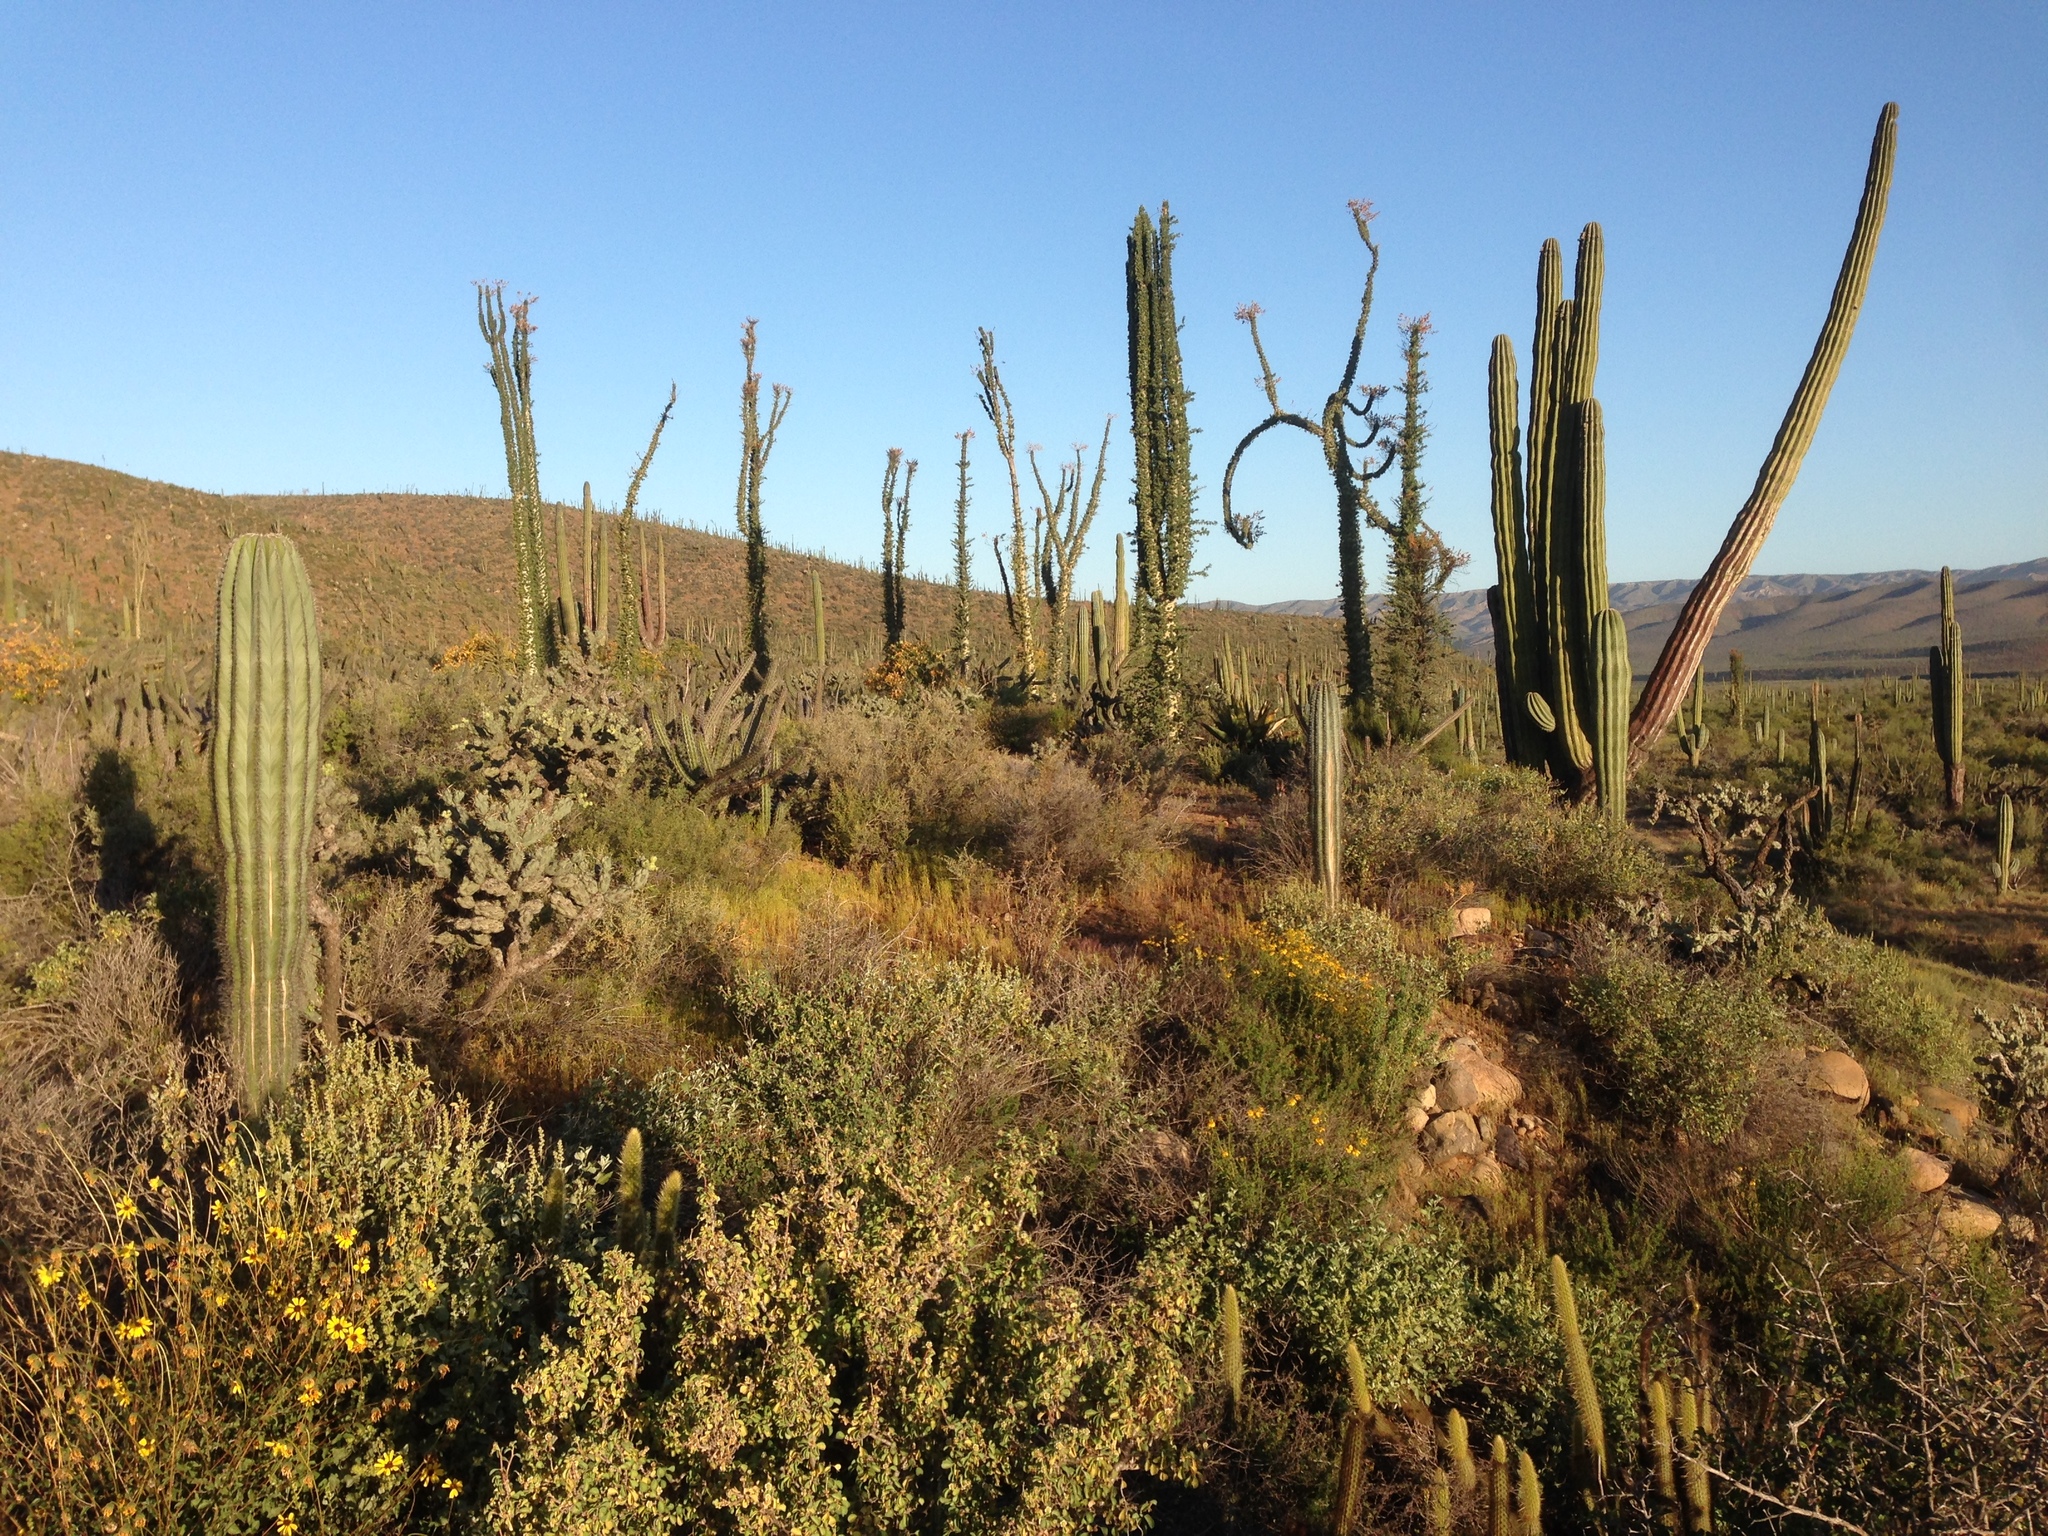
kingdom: Plantae
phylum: Tracheophyta
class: Magnoliopsida
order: Caryophyllales
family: Cactaceae
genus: Pachycereus
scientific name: Pachycereus pringlei
